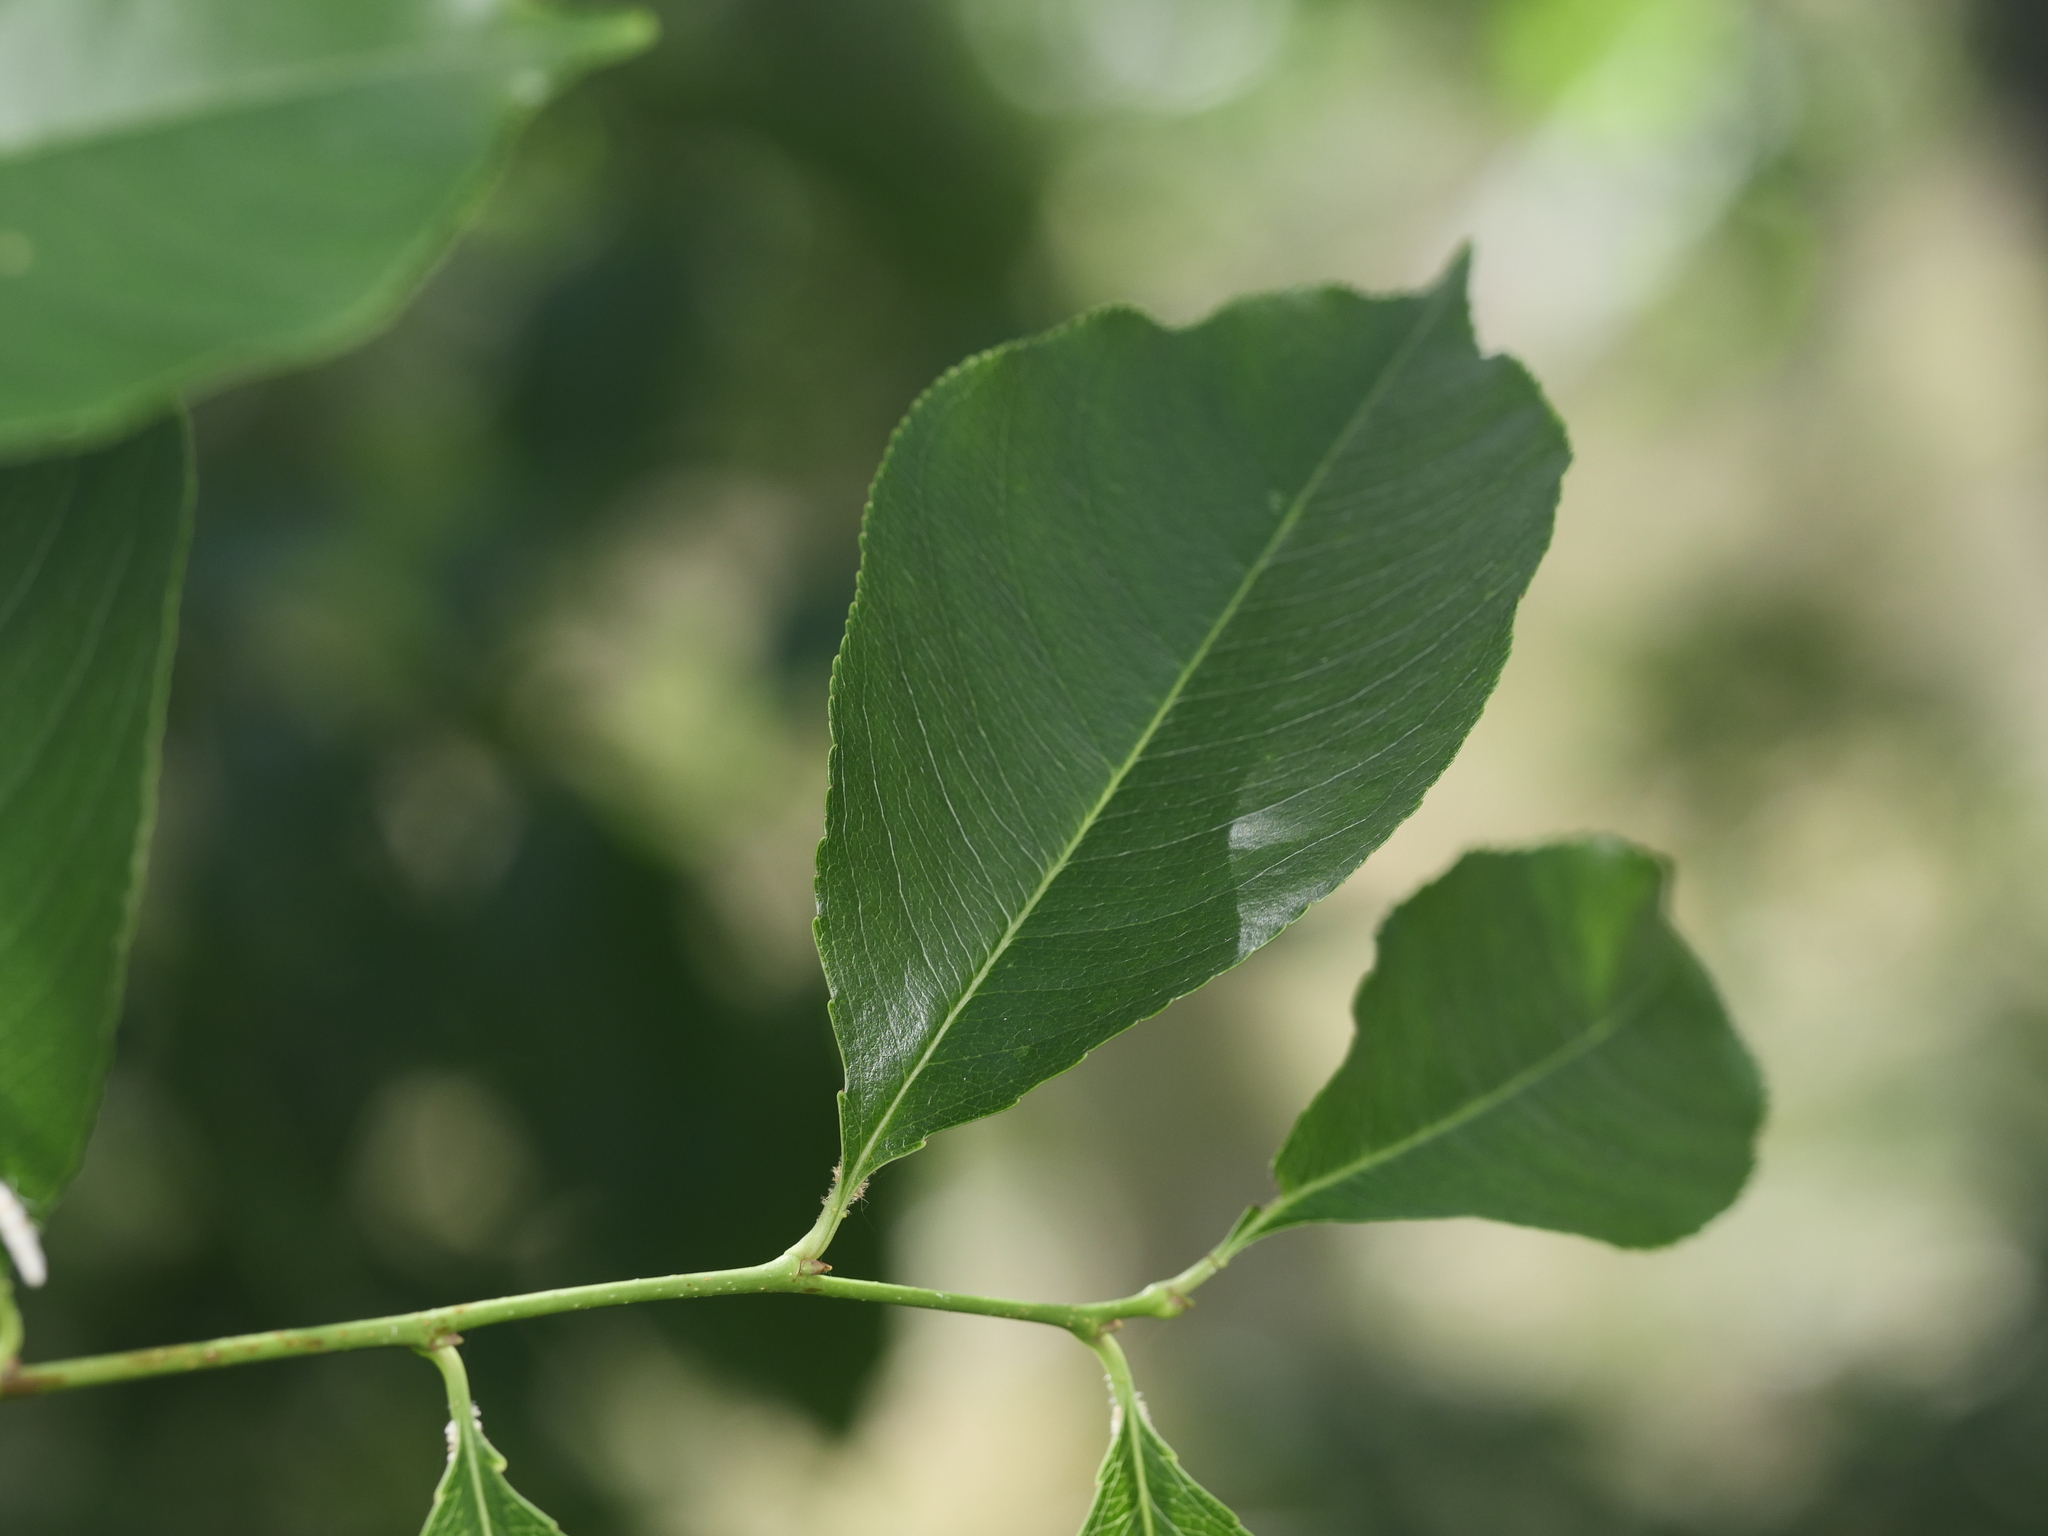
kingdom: Plantae
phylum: Tracheophyta
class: Magnoliopsida
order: Rosales
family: Rosaceae
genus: Prunus
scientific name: Prunus serotina
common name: Black cherry
